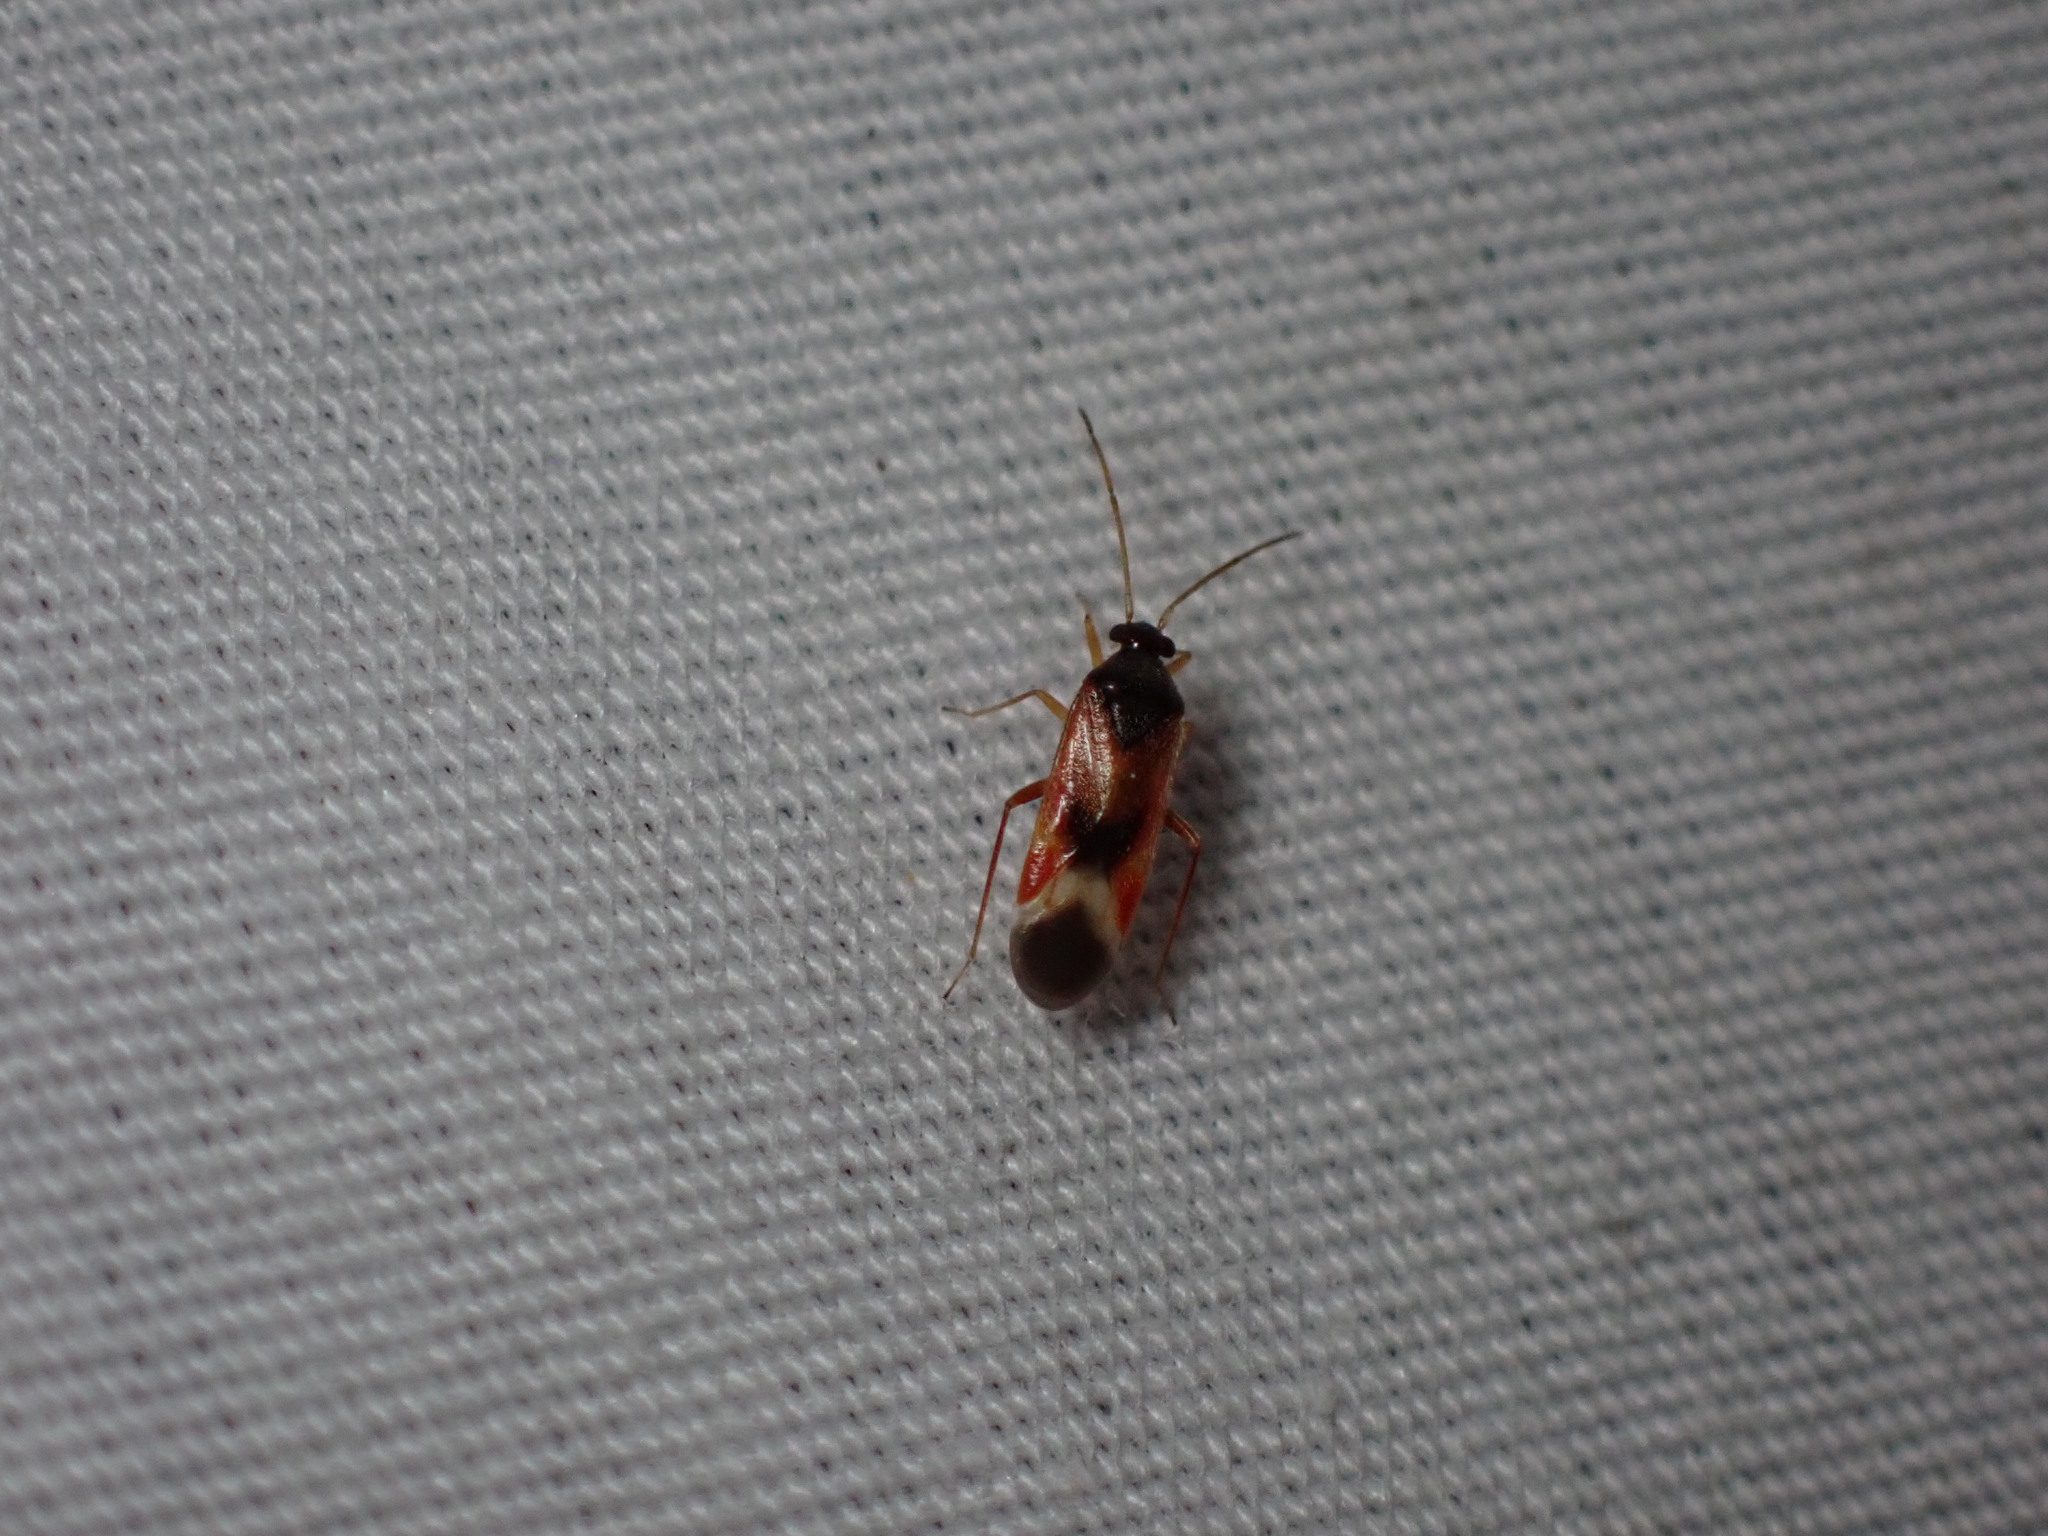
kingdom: Animalia
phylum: Arthropoda
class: Insecta
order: Hemiptera
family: Miridae
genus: Ceratocapsus
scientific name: Ceratocapsus apicalis
